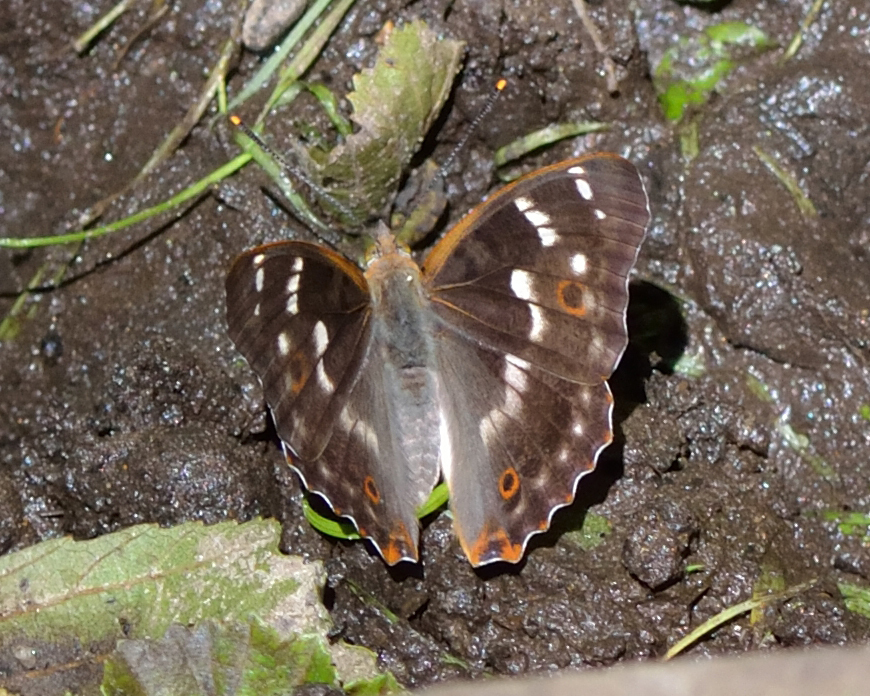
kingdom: Animalia
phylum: Arthropoda
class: Insecta
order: Lepidoptera
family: Nymphalidae
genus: Apatura
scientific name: Apatura ilia
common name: Lesser purple emperor
